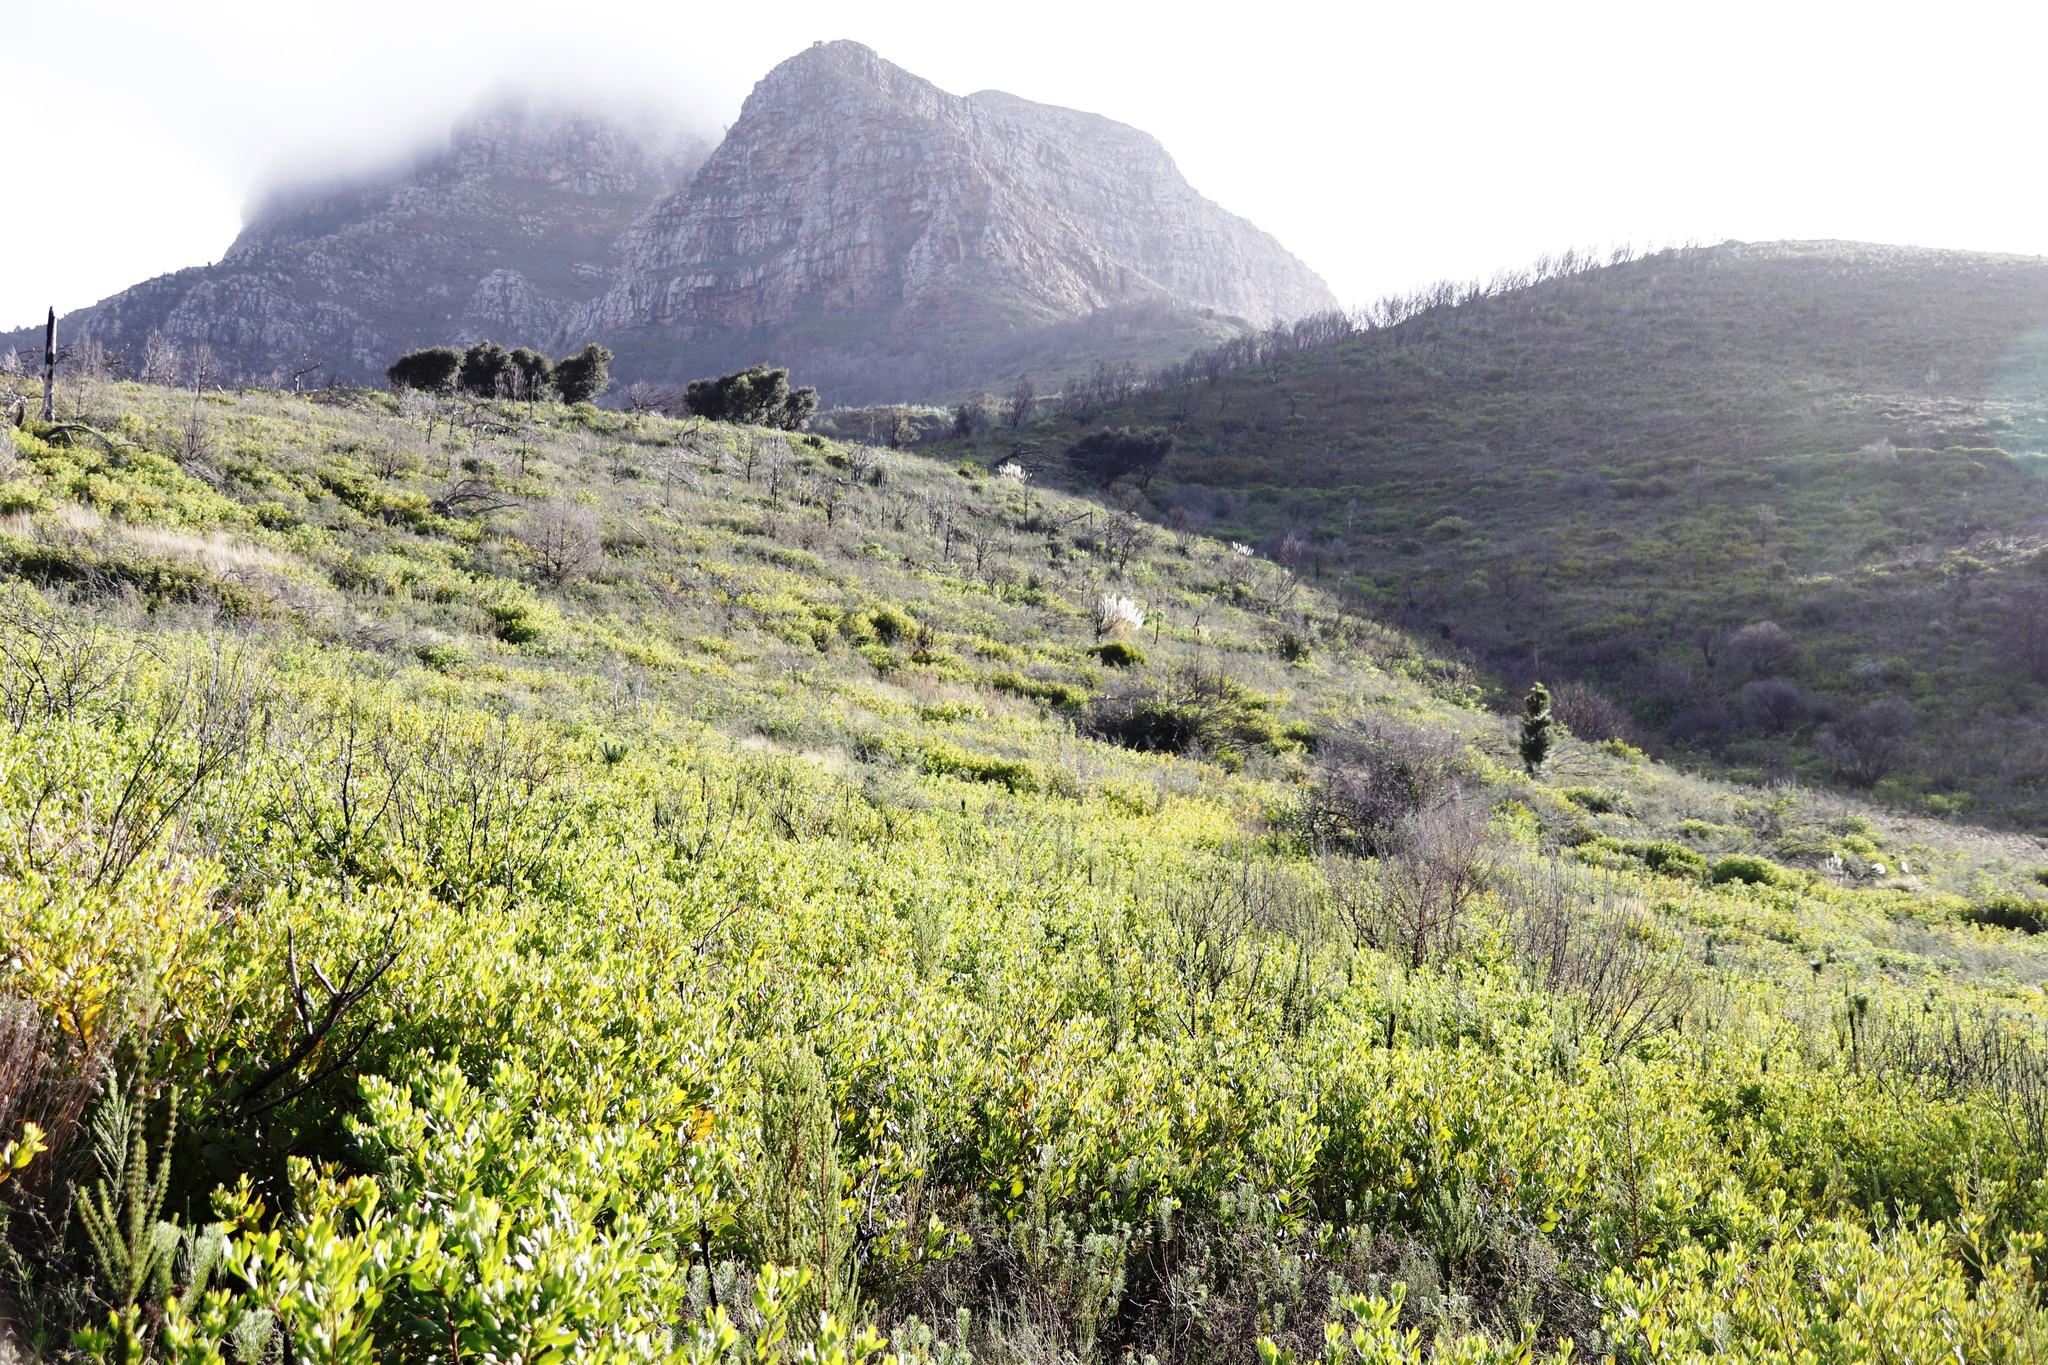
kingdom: Plantae
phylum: Tracheophyta
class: Magnoliopsida
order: Asterales
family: Asteraceae
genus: Osteospermum
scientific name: Osteospermum moniliferum
